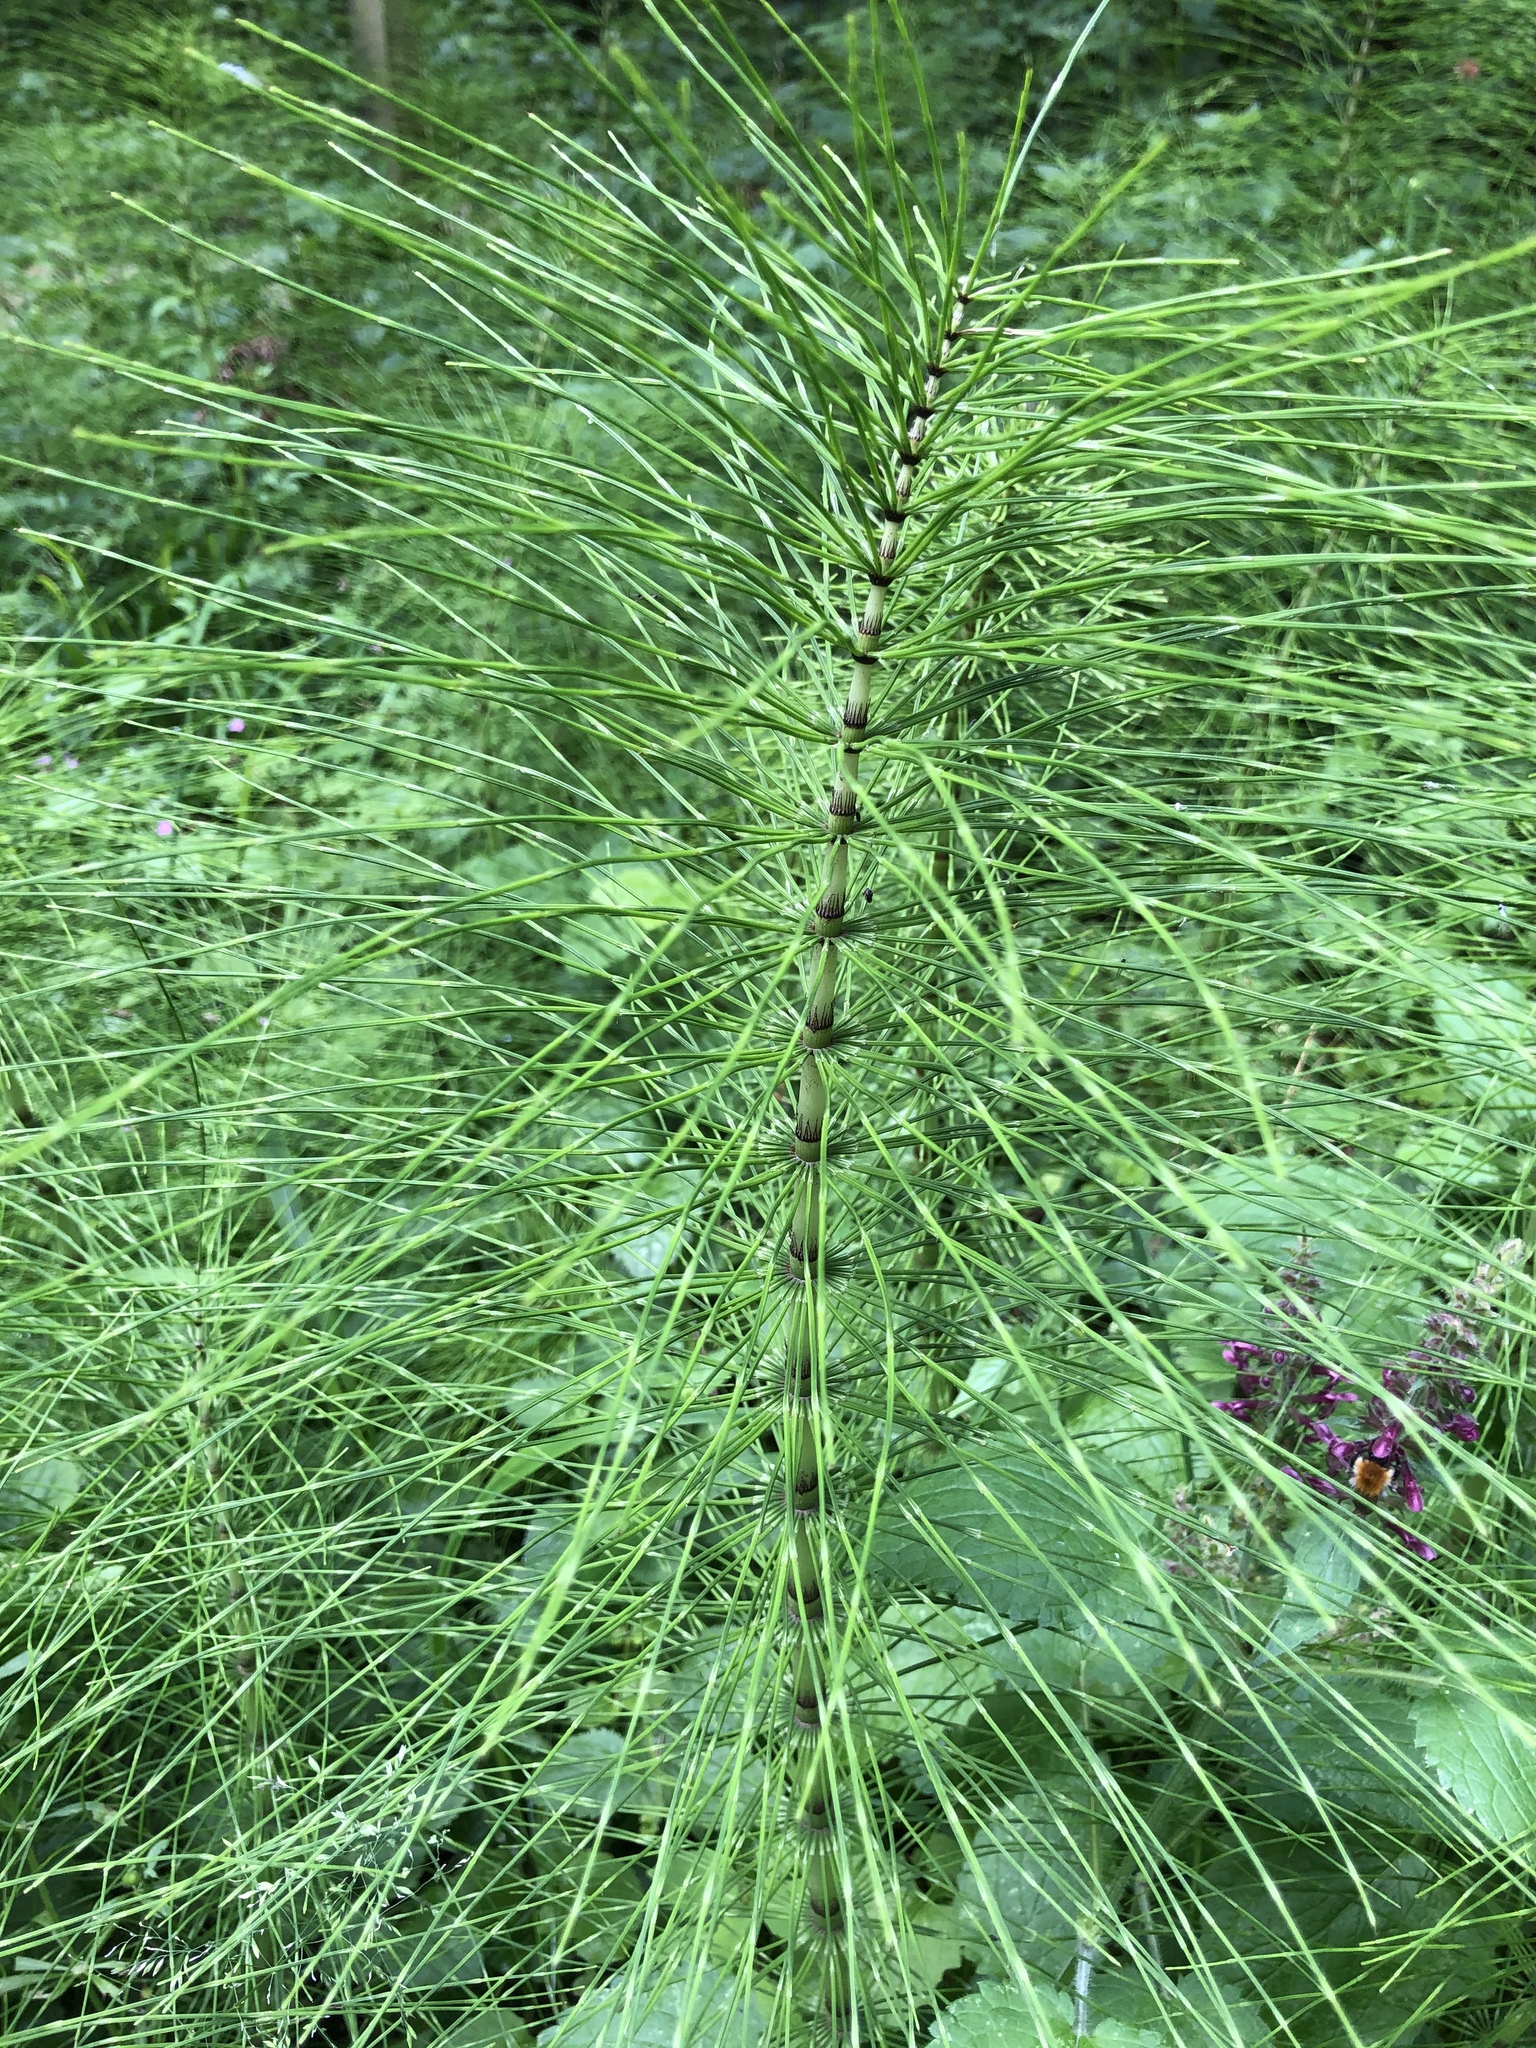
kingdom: Plantae
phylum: Tracheophyta
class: Polypodiopsida
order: Equisetales
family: Equisetaceae
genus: Equisetum
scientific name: Equisetum telmateia
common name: Great horsetail
